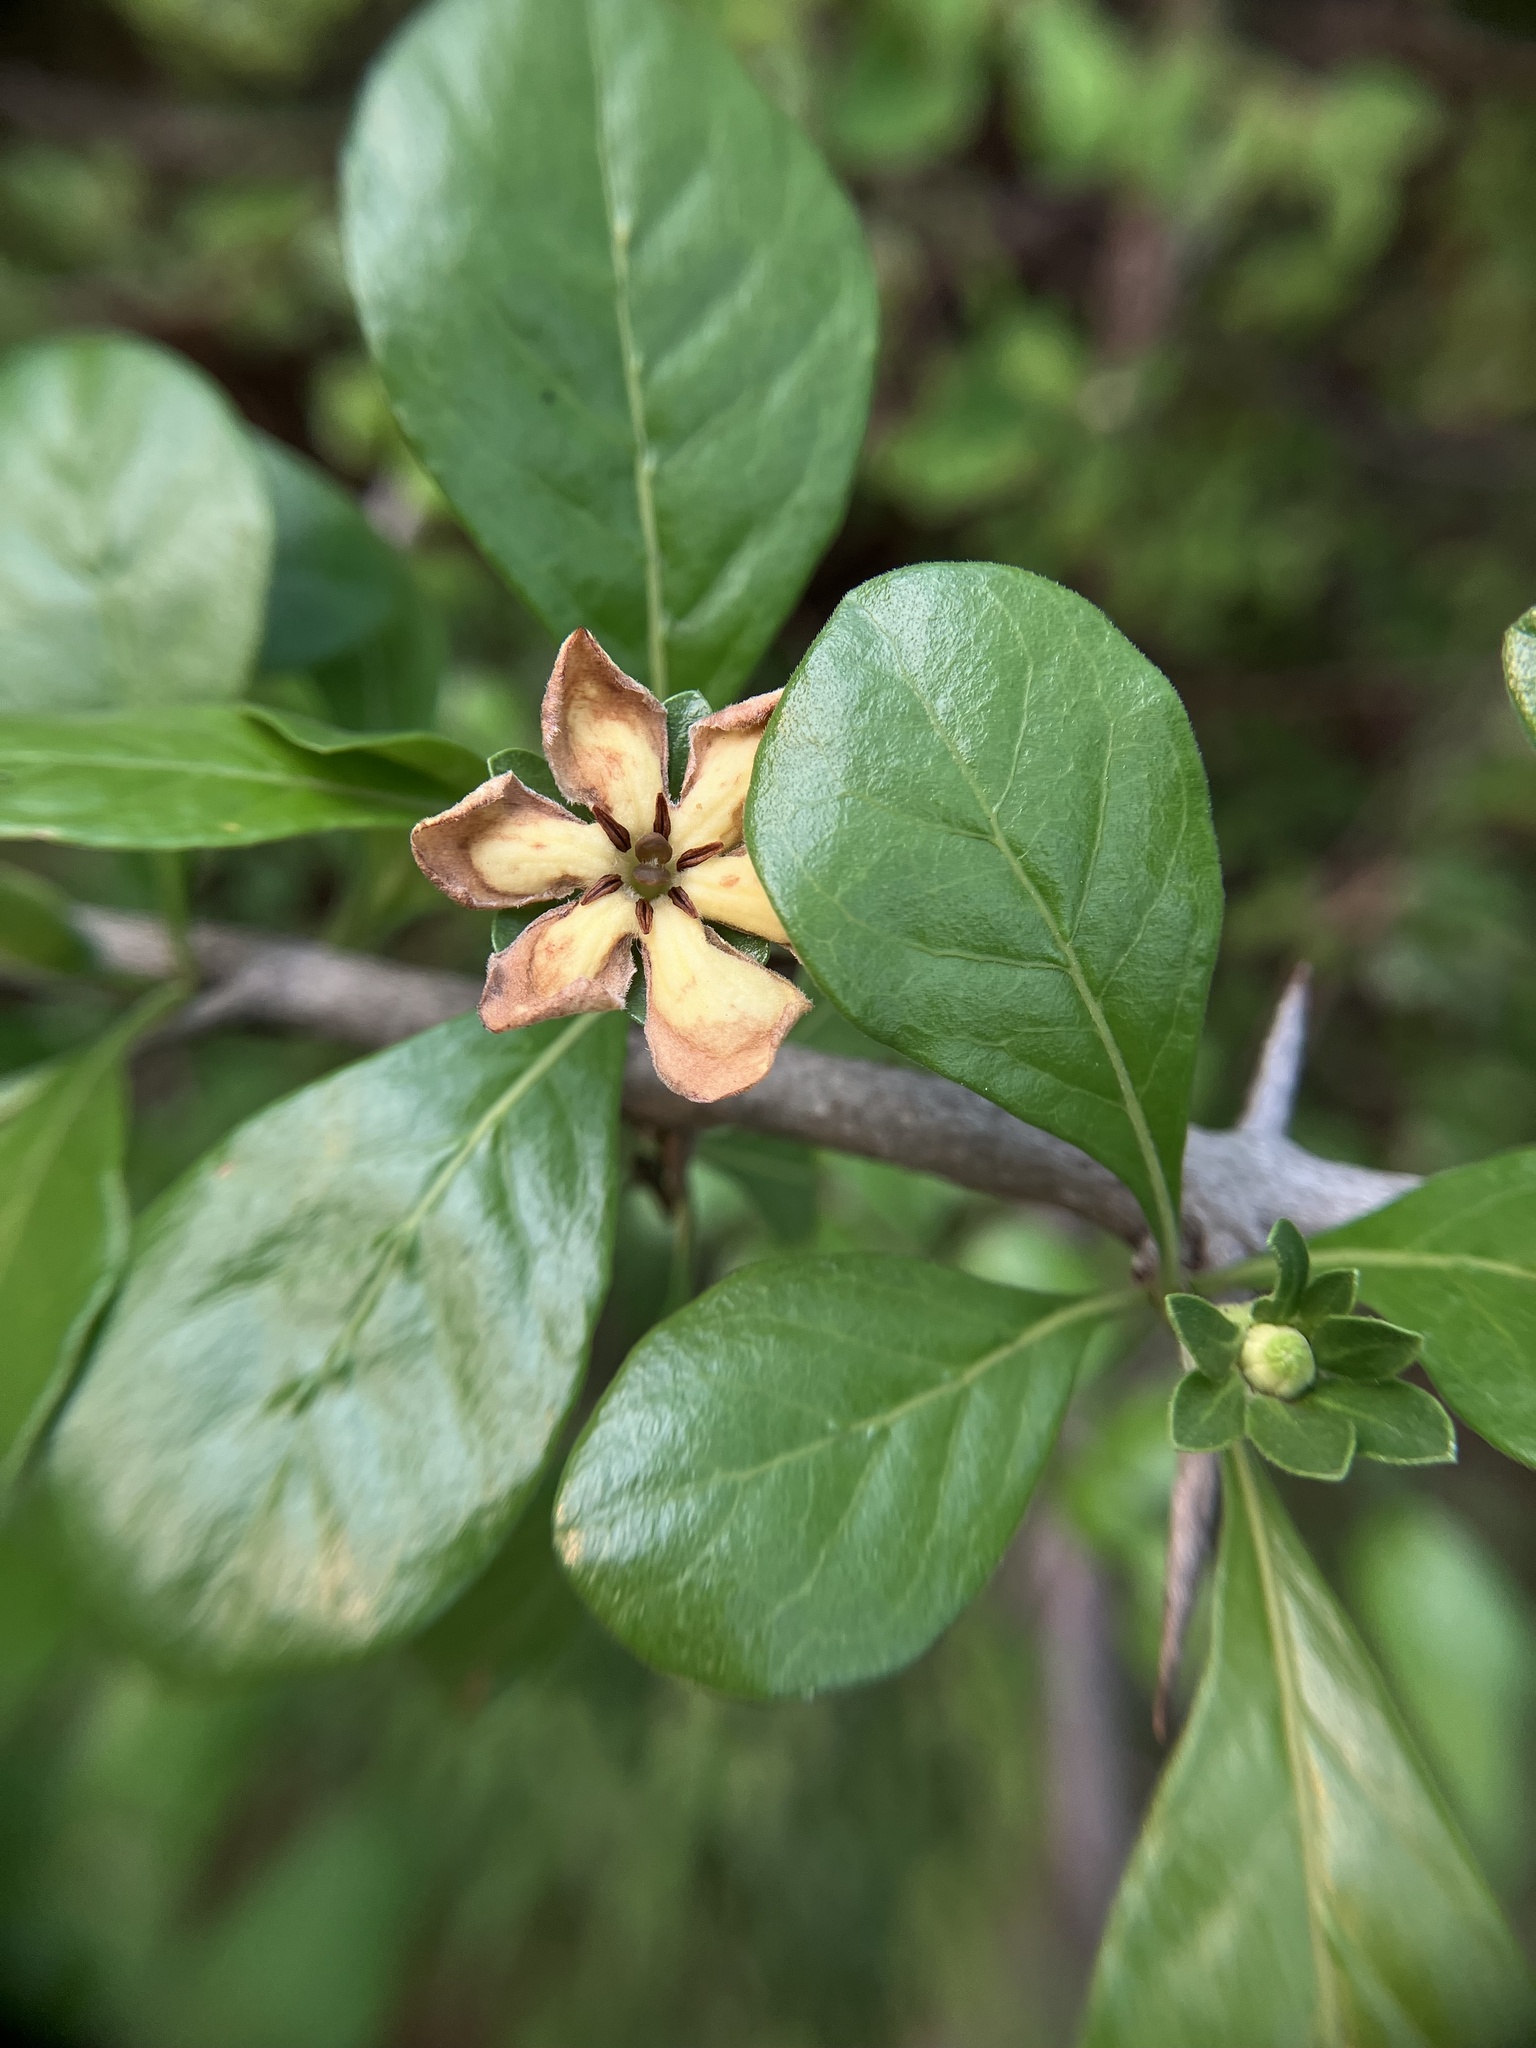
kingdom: Plantae
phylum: Tracheophyta
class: Magnoliopsida
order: Gentianales
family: Rubiaceae
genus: Catunaregam
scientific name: Catunaregam spinosa
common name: Emetic-nut
